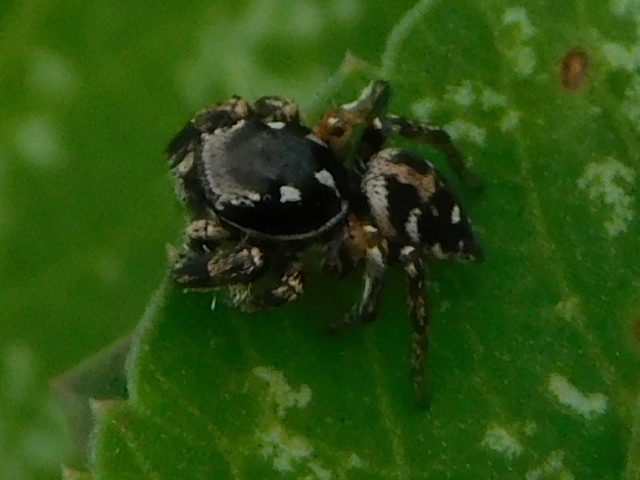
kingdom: Animalia
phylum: Arthropoda
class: Arachnida
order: Araneae
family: Salticidae
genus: Habronattus
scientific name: Habronattus brunneus
